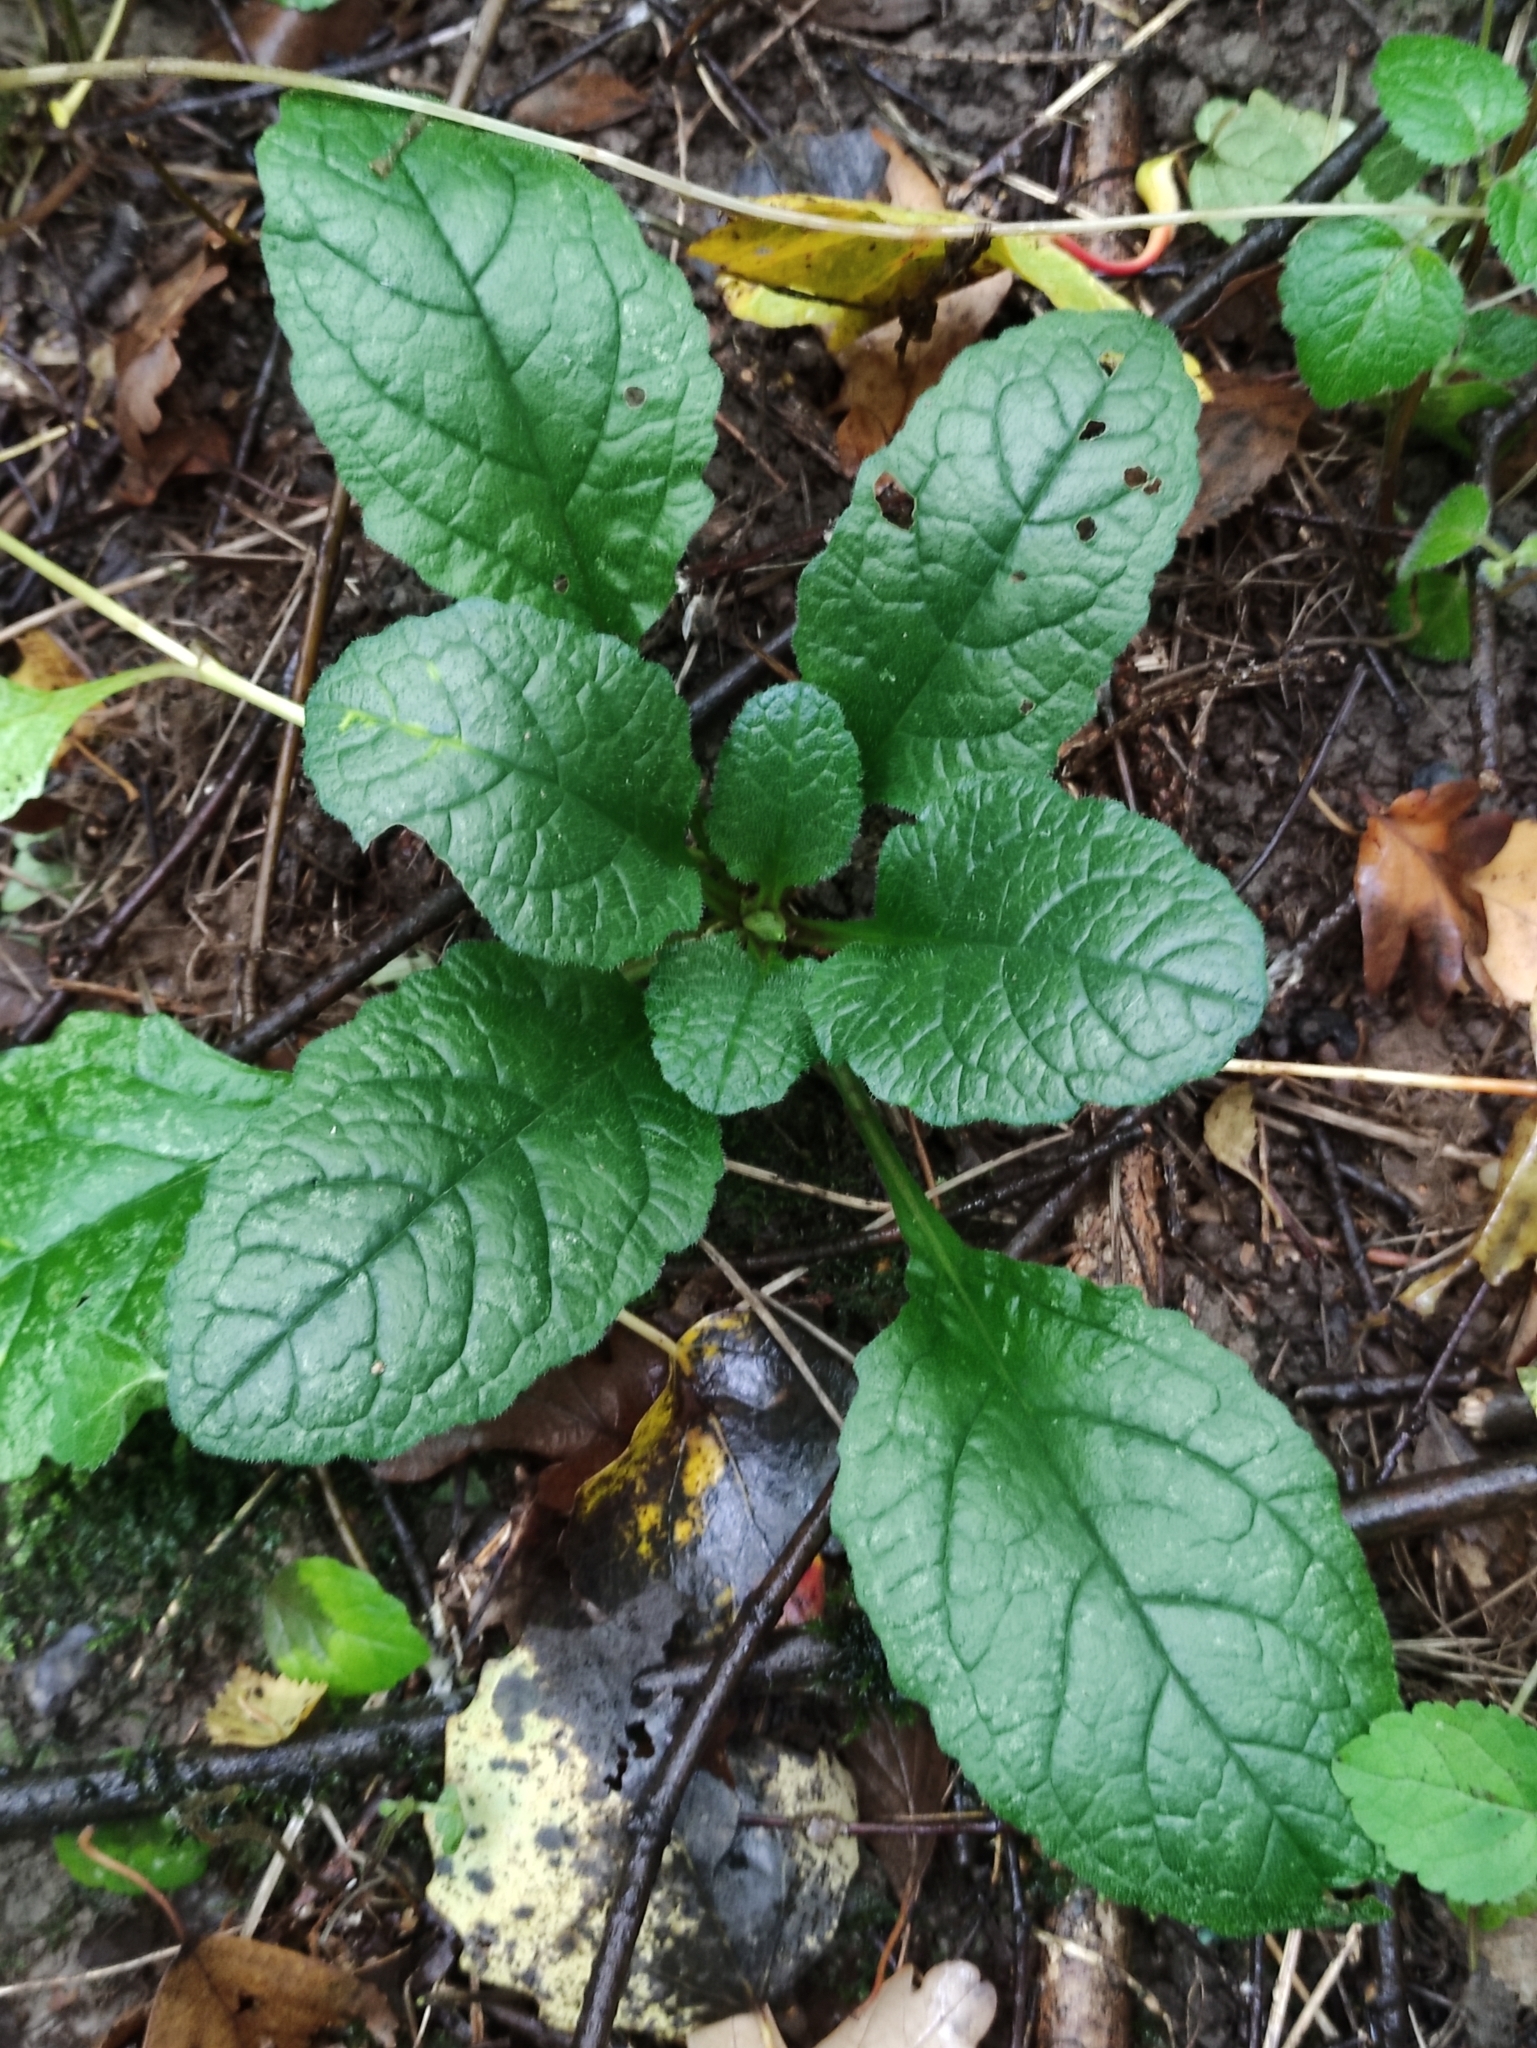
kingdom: Plantae
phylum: Tracheophyta
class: Magnoliopsida
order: Lamiales
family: Lamiaceae
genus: Ajuga
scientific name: Ajuga reptans
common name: Bugle
